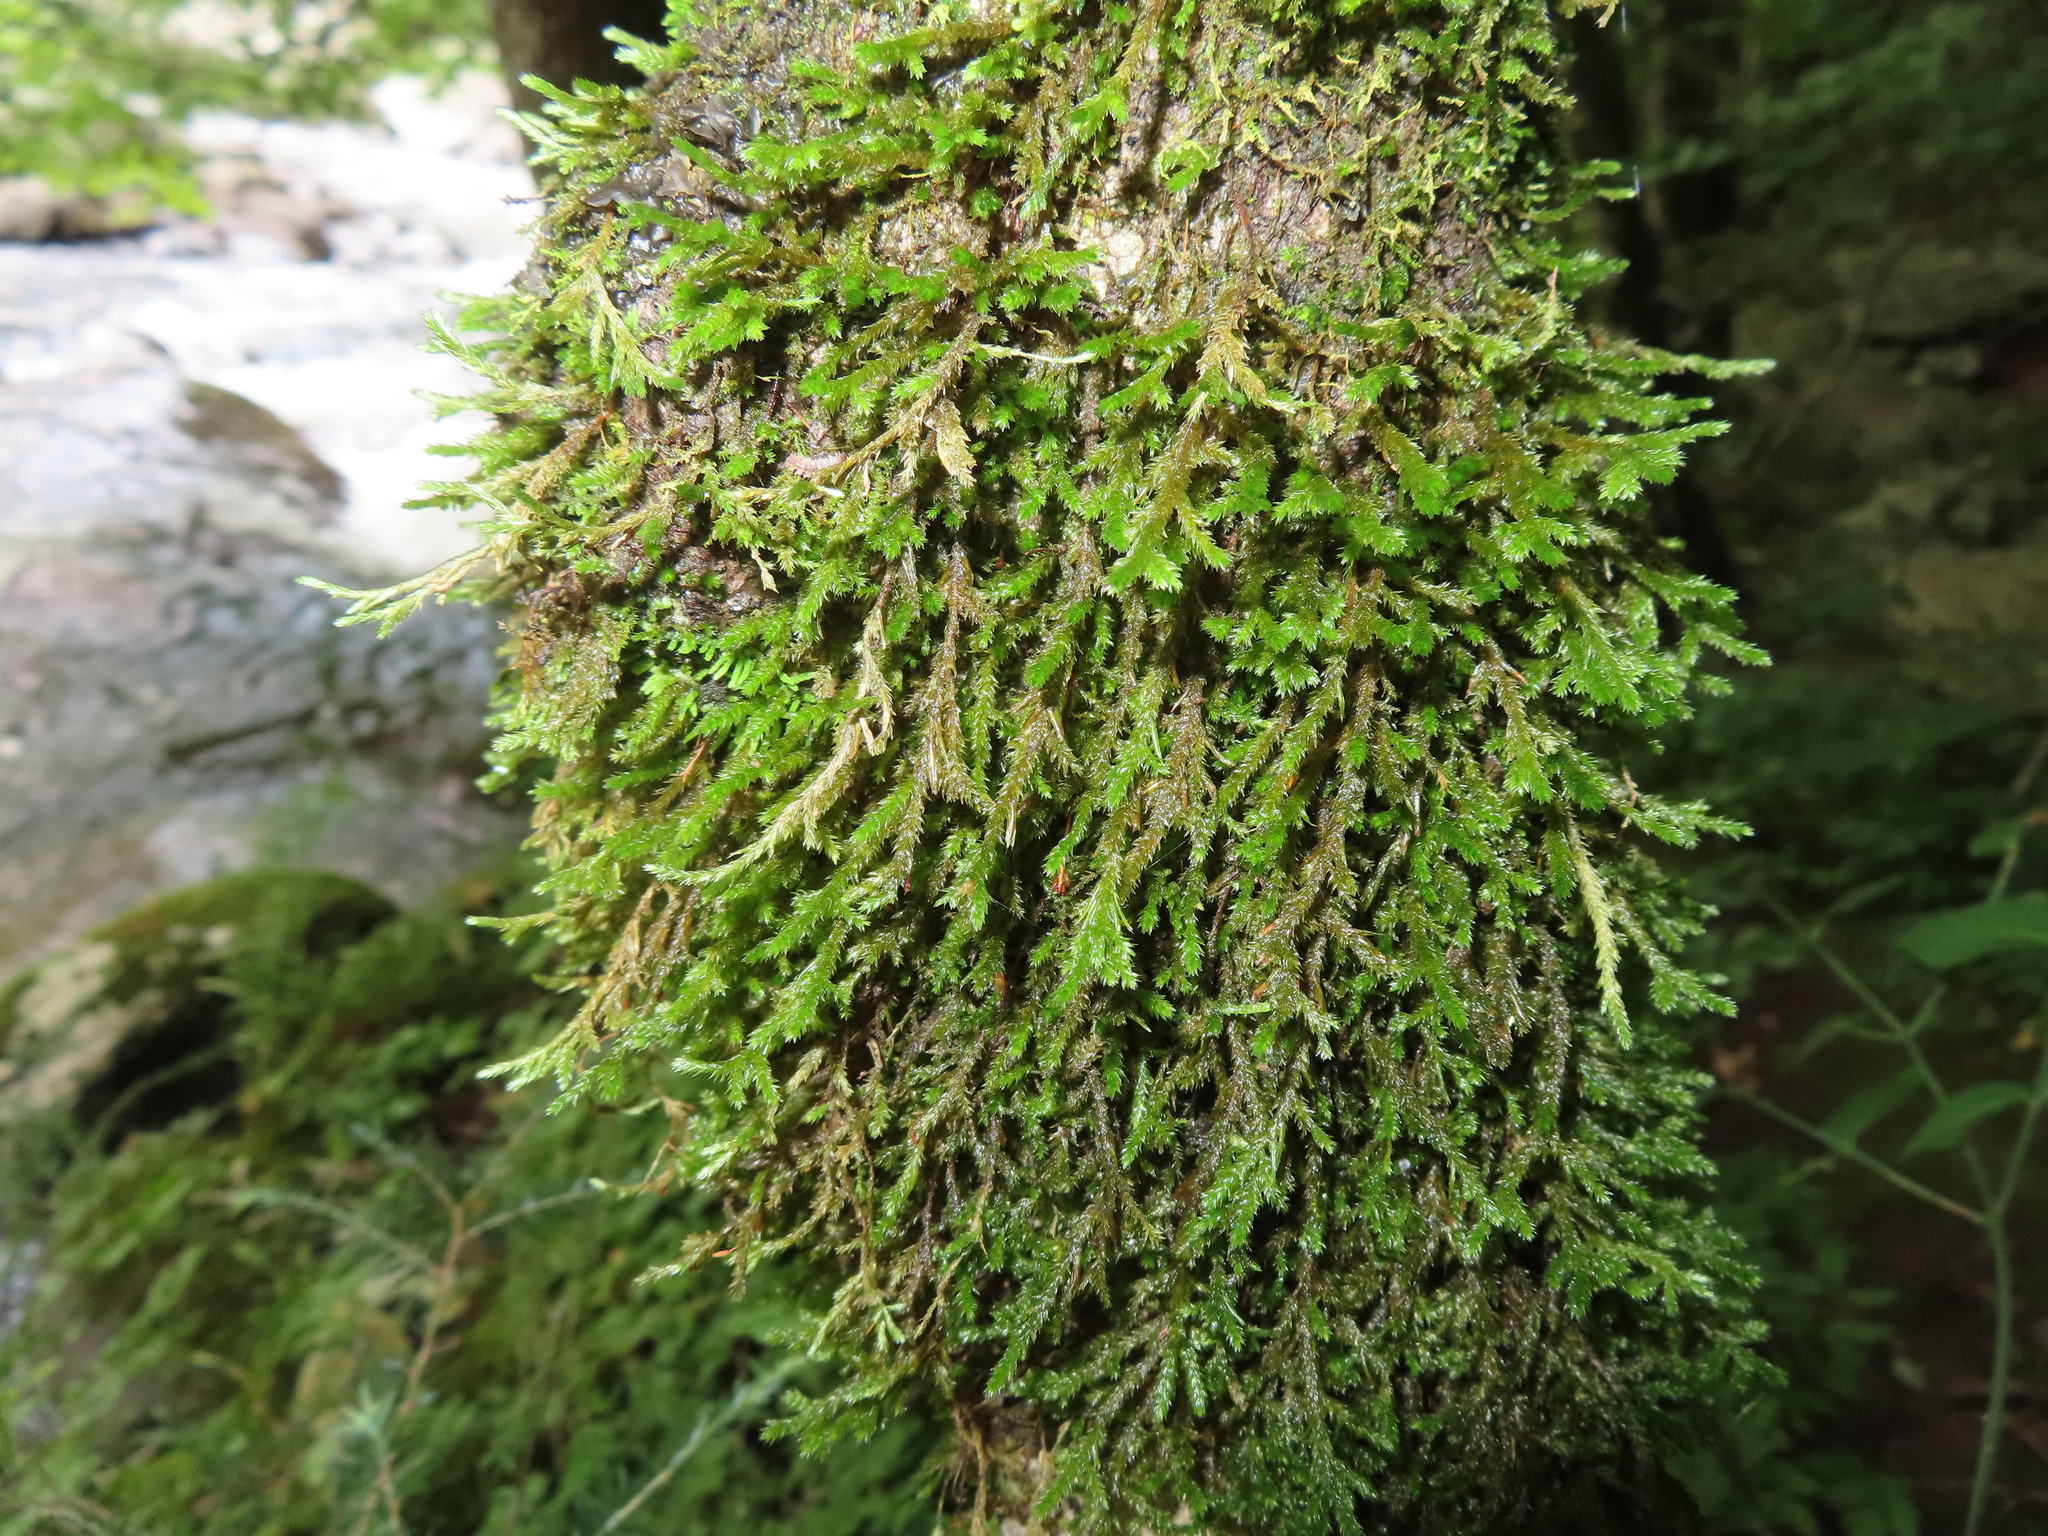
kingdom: Plantae
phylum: Bryophyta
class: Bryopsida
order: Hypnales
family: Neckeraceae
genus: Forsstroemia
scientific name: Forsstroemia trichomitria
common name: Fan moss
